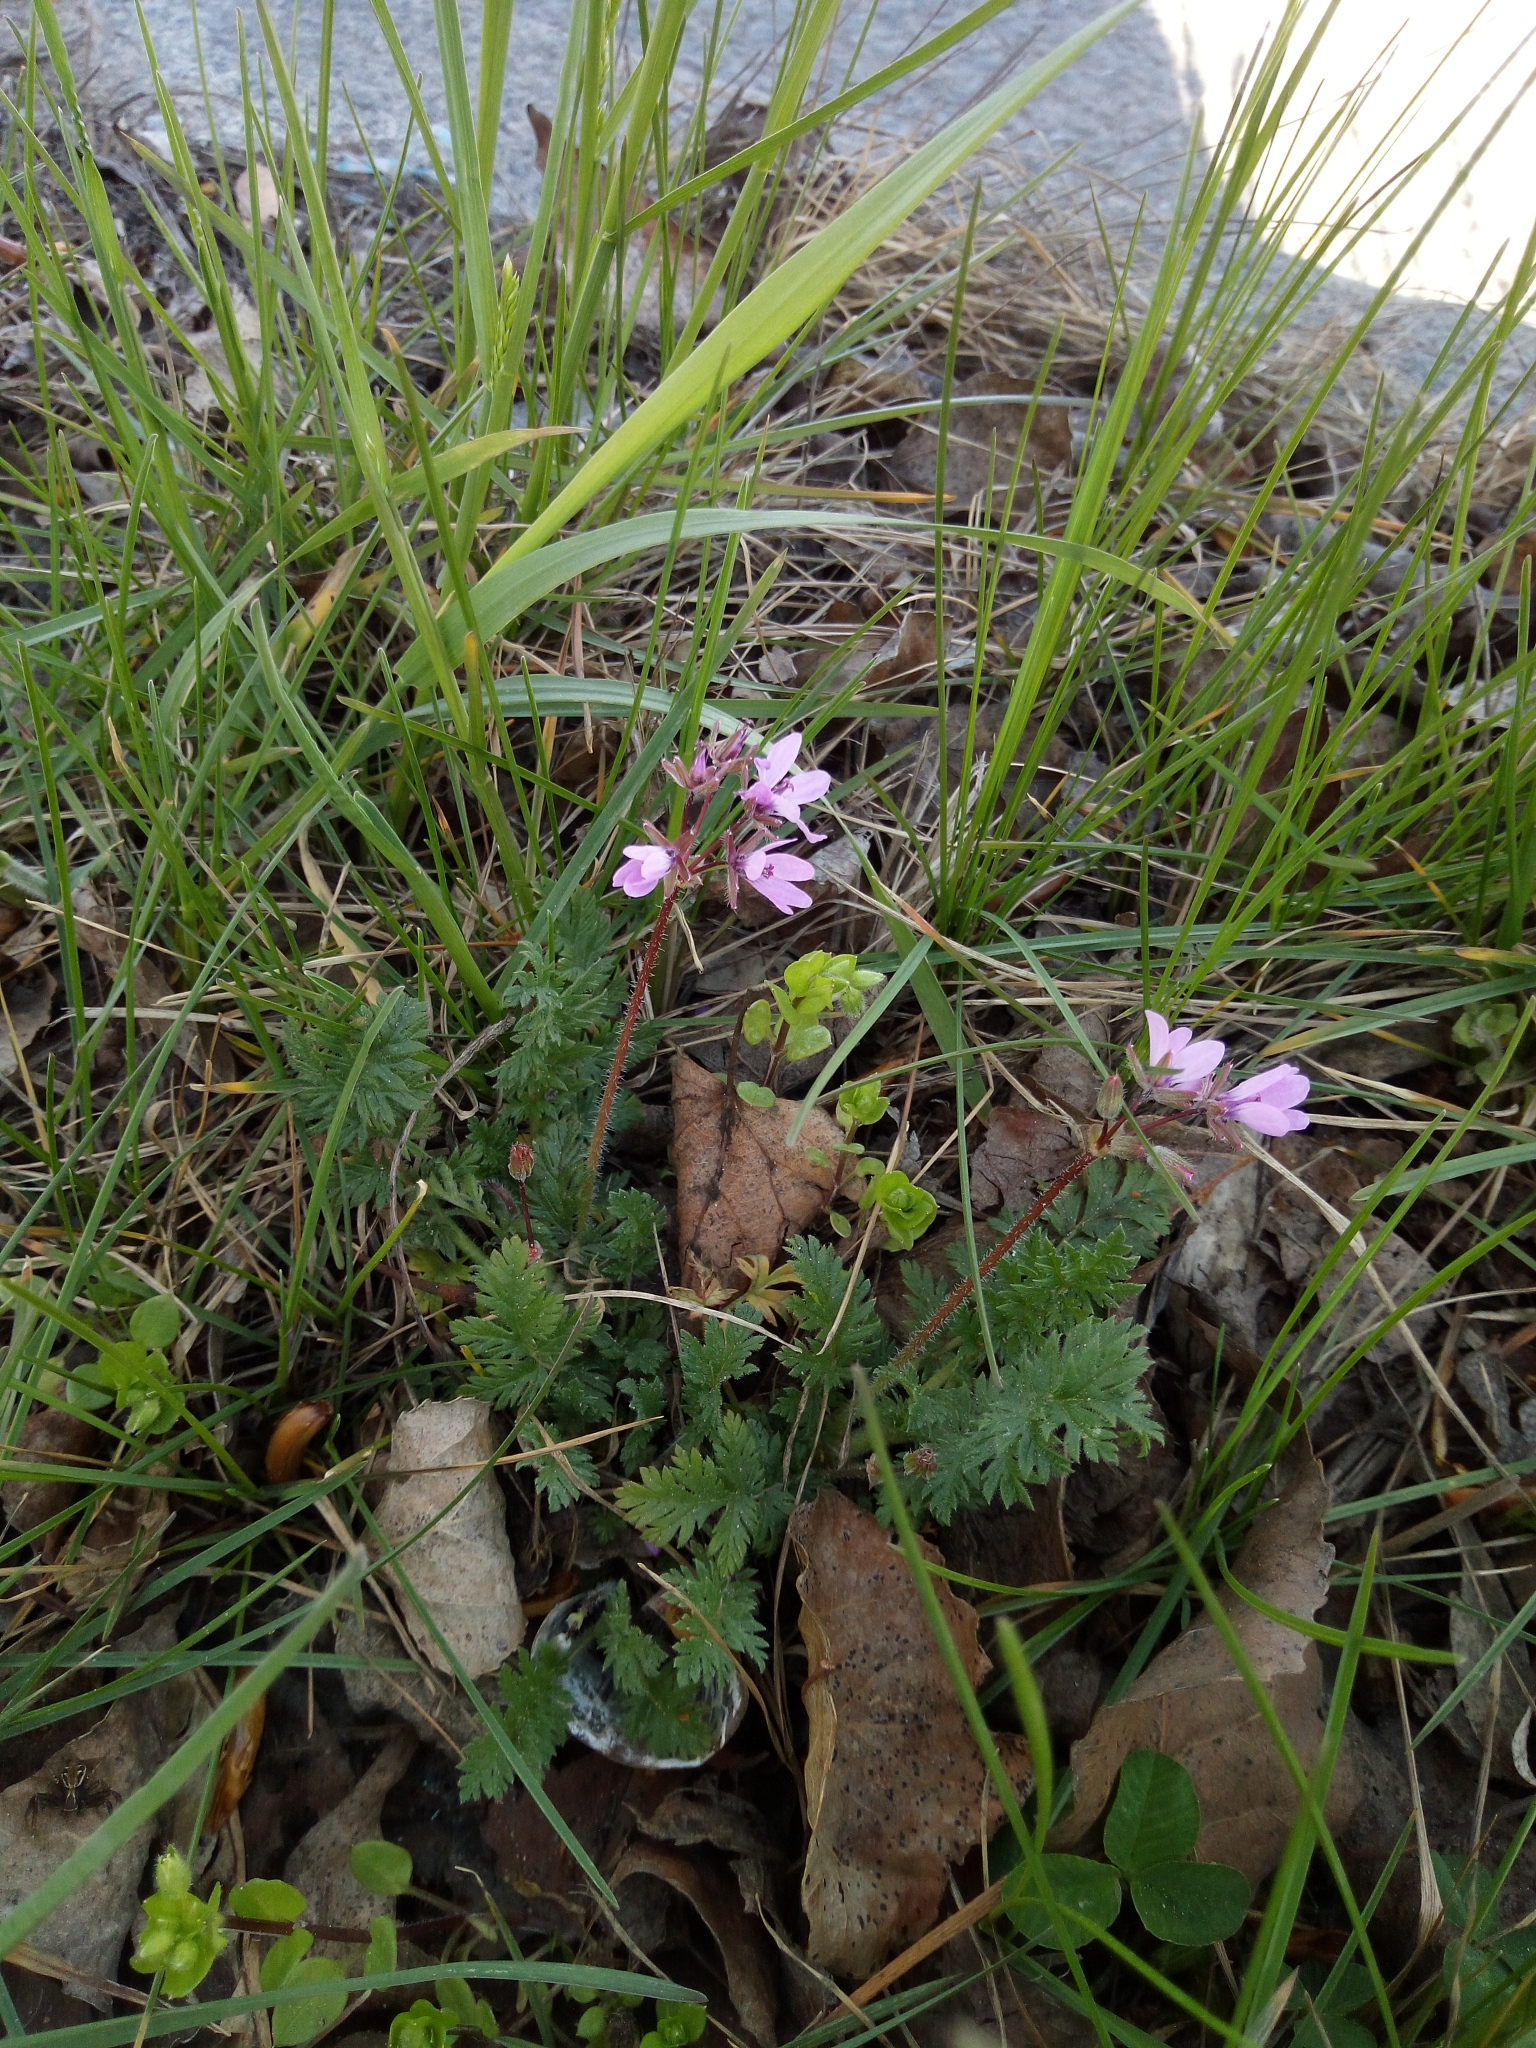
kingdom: Plantae
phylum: Tracheophyta
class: Magnoliopsida
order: Geraniales
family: Geraniaceae
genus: Erodium
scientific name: Erodium cicutarium
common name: Common stork's-bill
